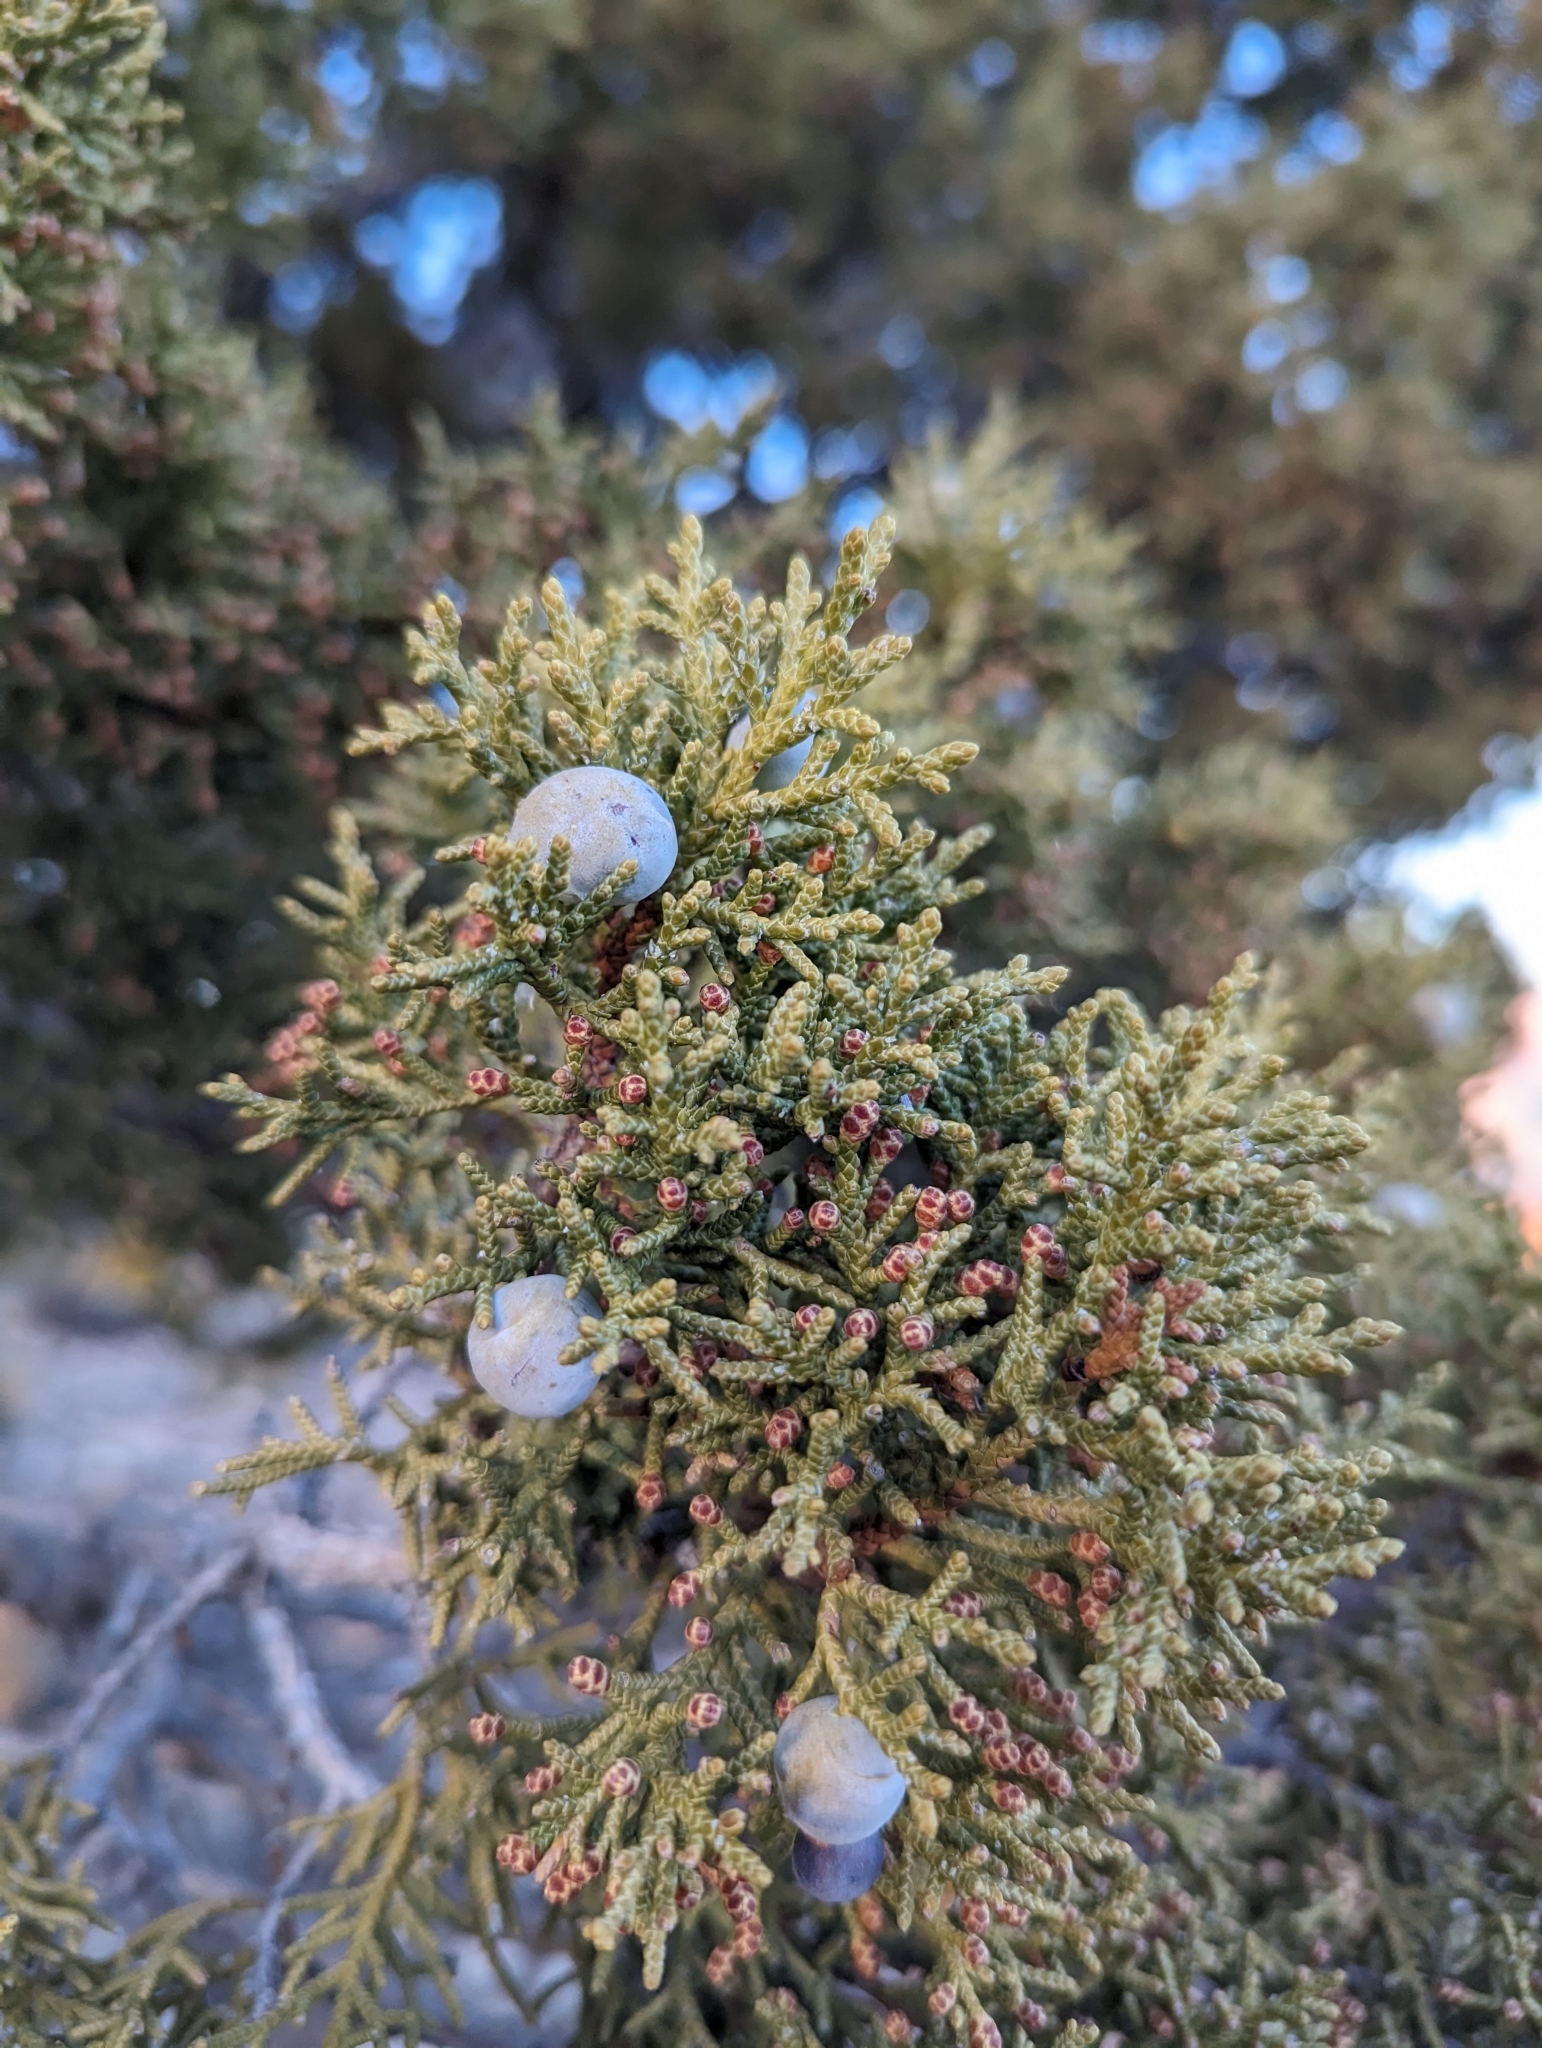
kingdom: Plantae
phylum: Tracheophyta
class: Pinopsida
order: Pinales
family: Cupressaceae
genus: Juniperus
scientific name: Juniperus osteosperma
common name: Utah juniper
